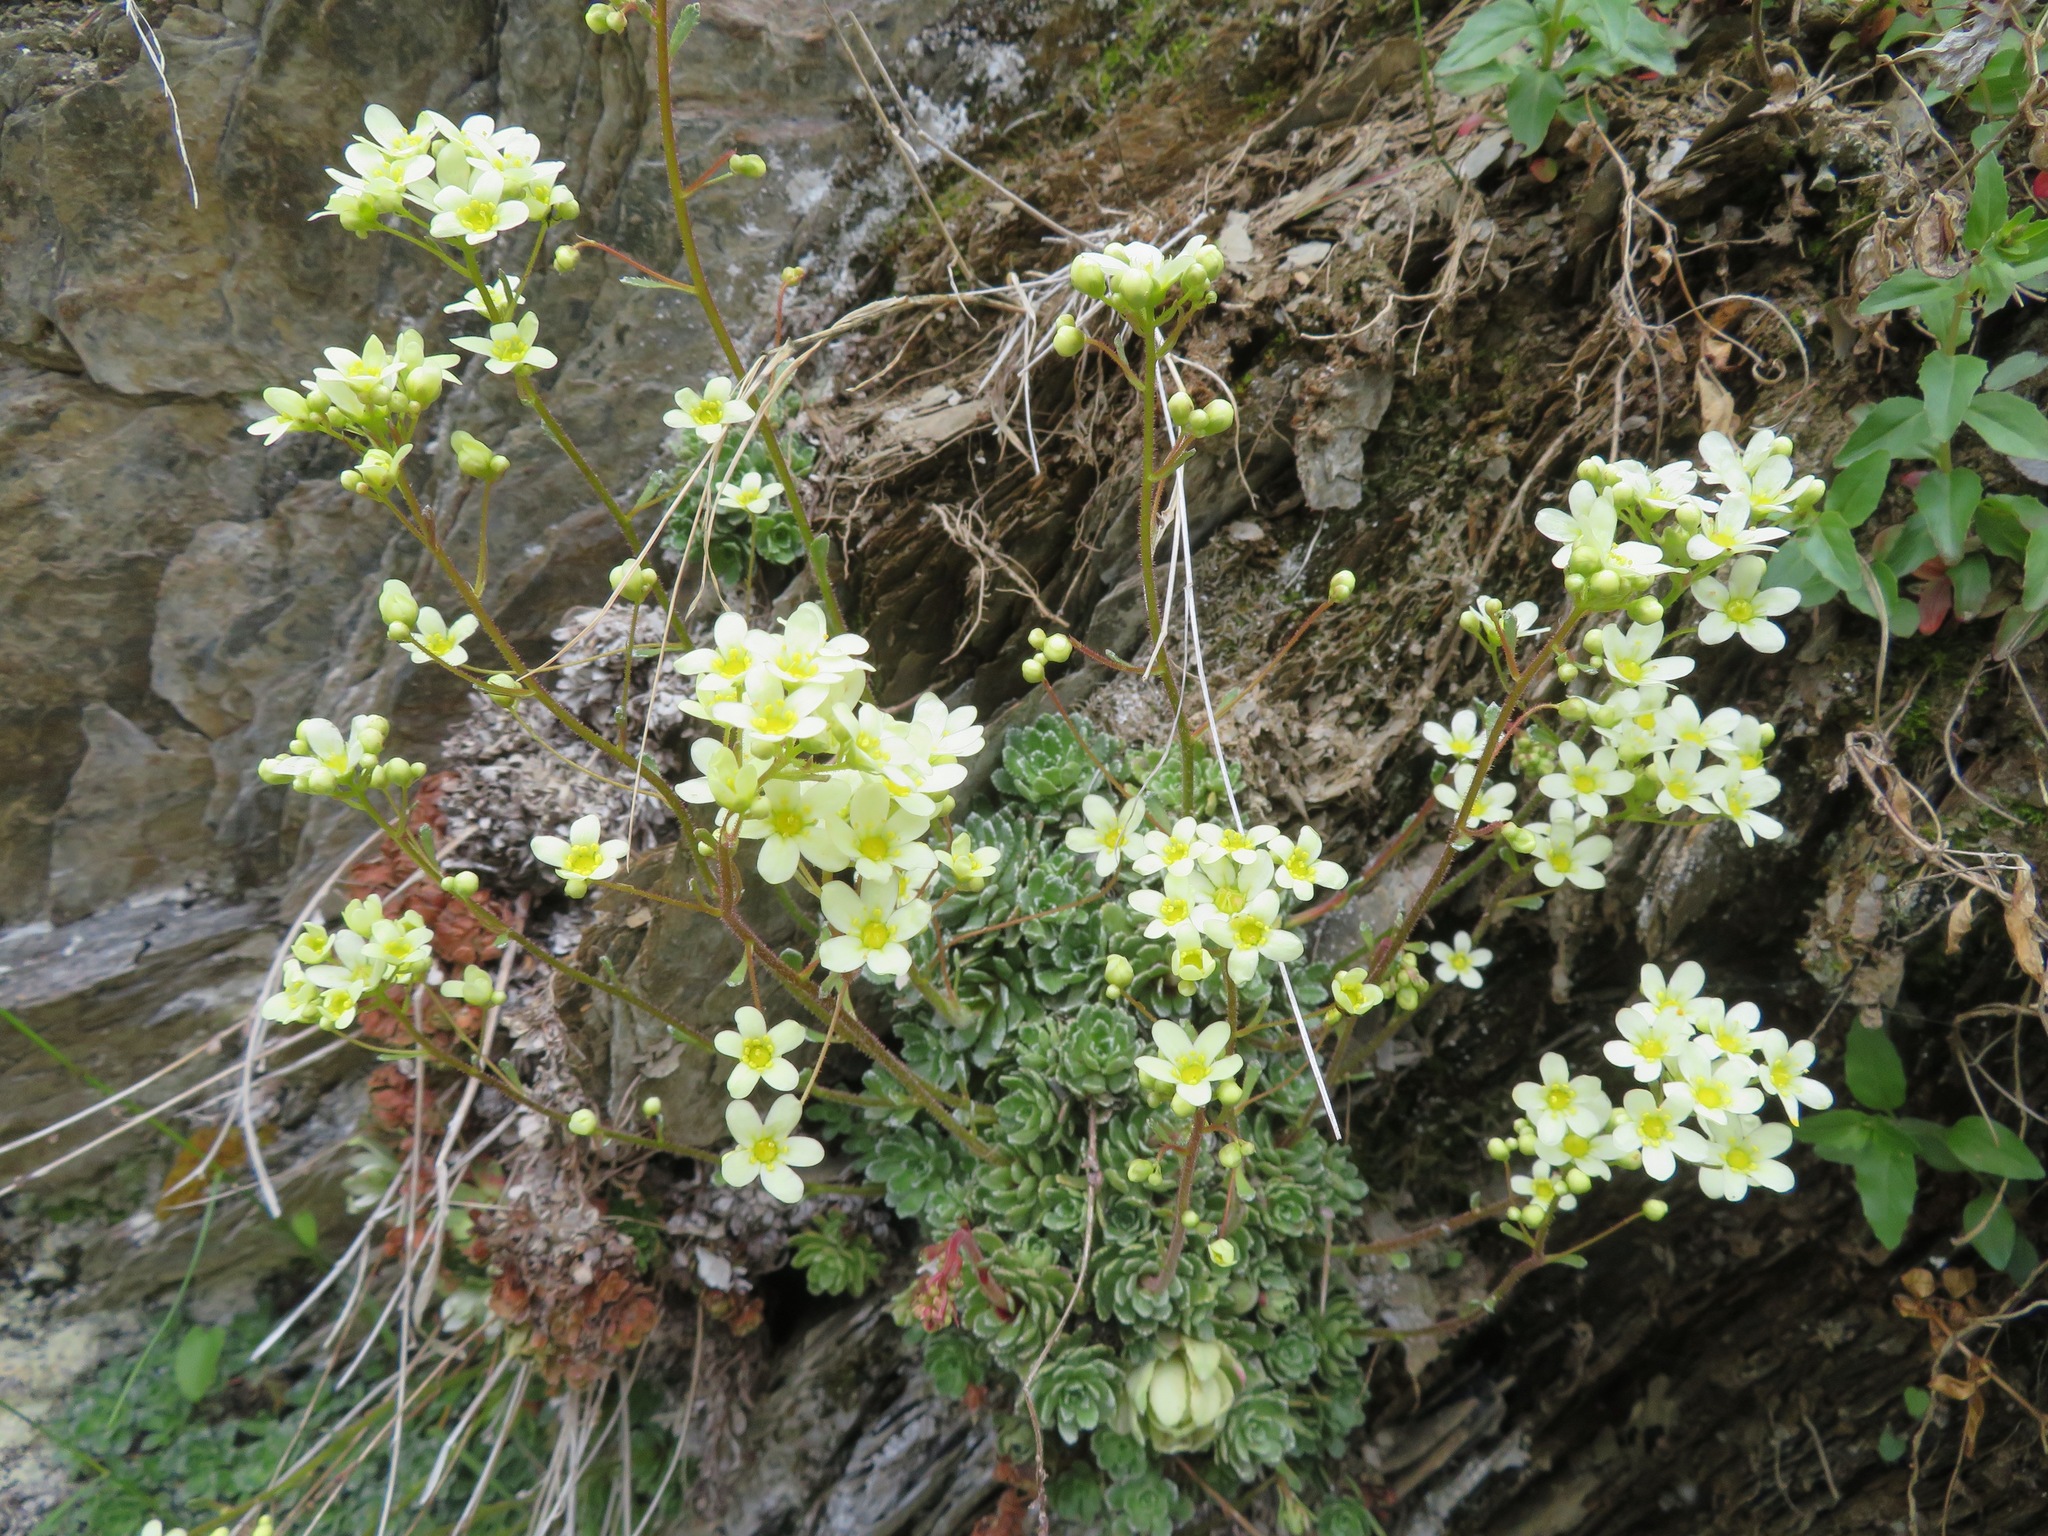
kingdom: Plantae
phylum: Tracheophyta
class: Magnoliopsida
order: Saxifragales
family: Saxifragaceae
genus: Saxifraga
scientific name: Saxifraga paniculata
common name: Livelong saxifrage
